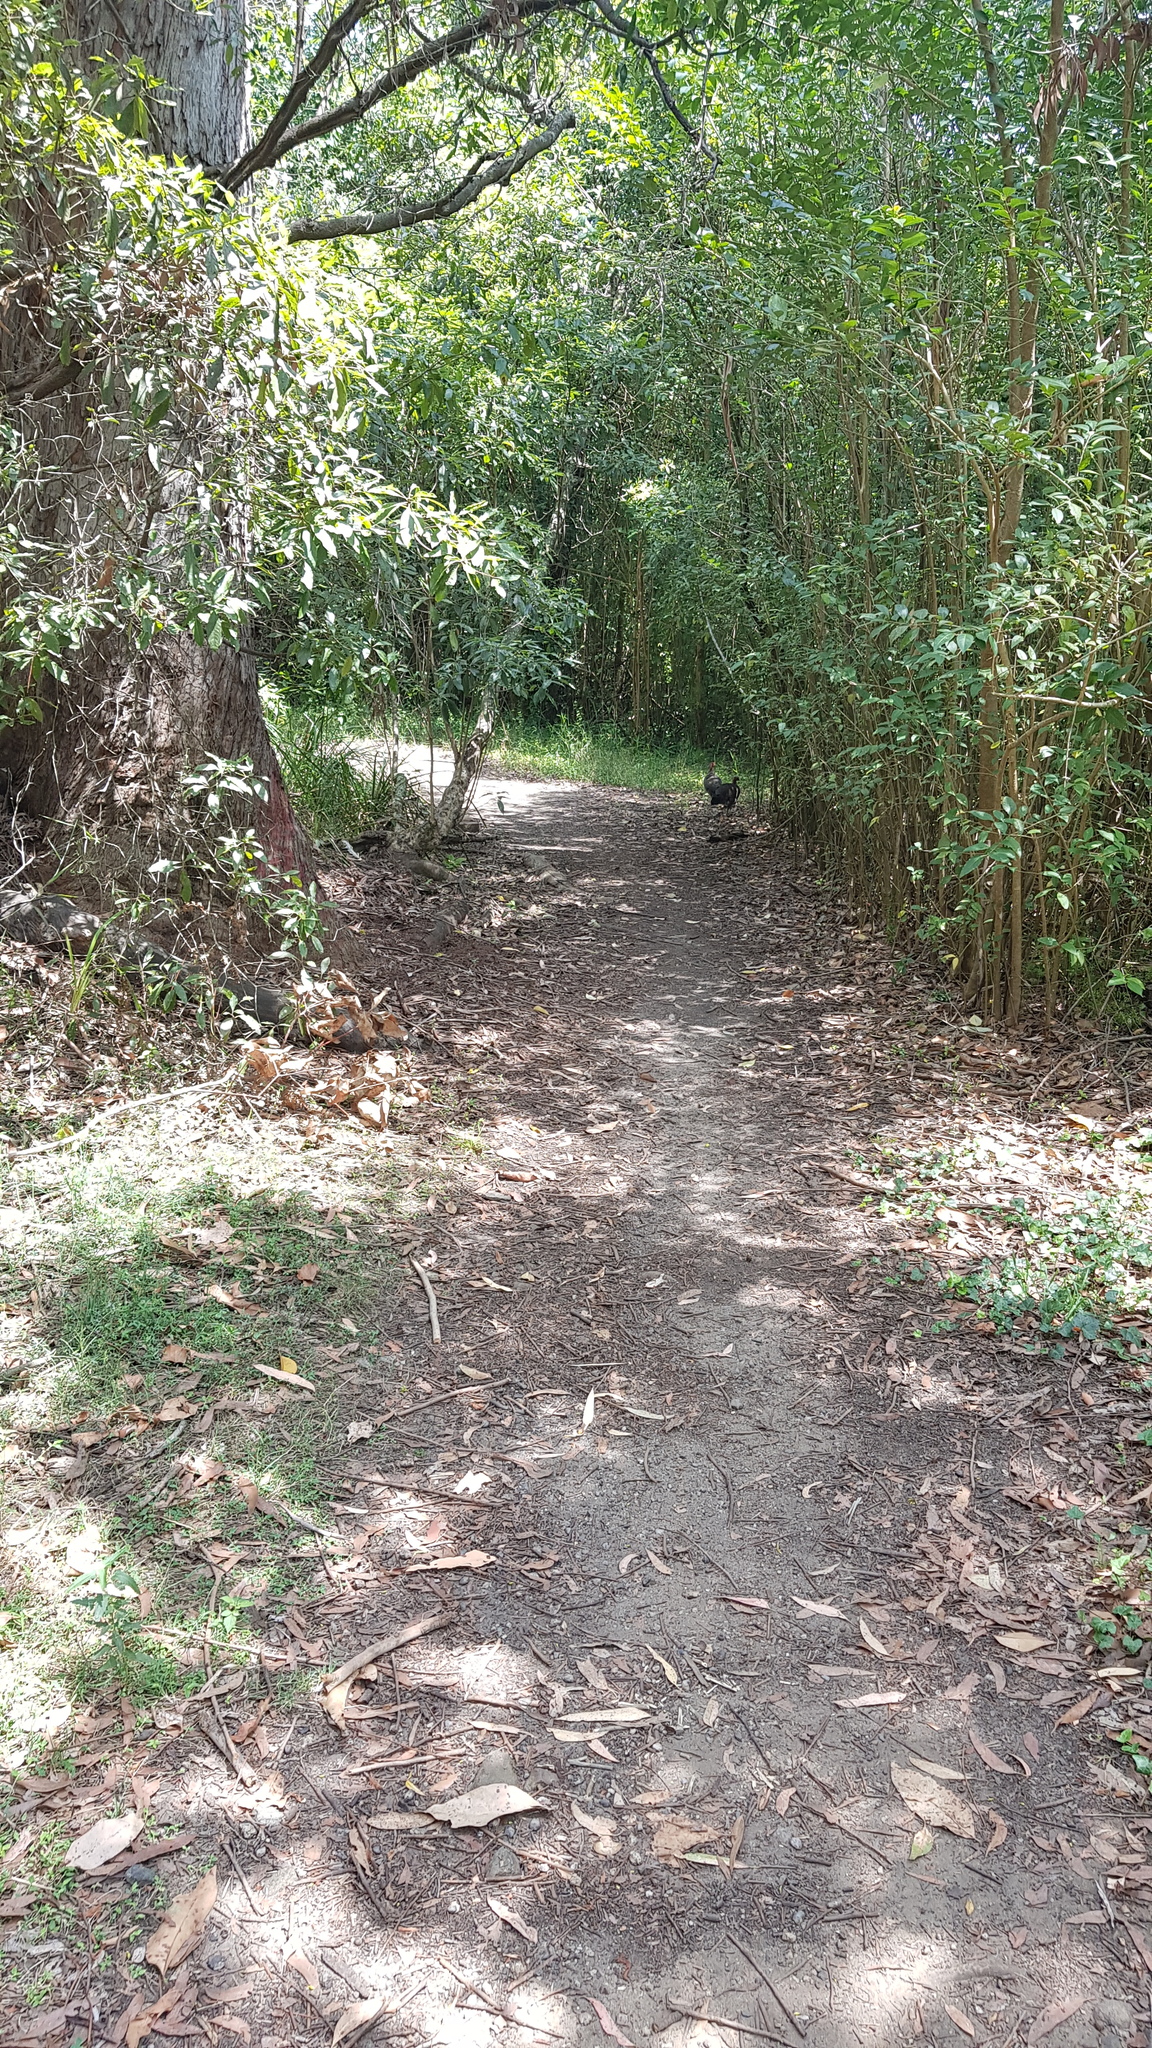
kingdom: Animalia
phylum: Chordata
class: Aves
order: Galliformes
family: Megapodiidae
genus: Alectura
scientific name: Alectura lathami
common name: Australian brushturkey
